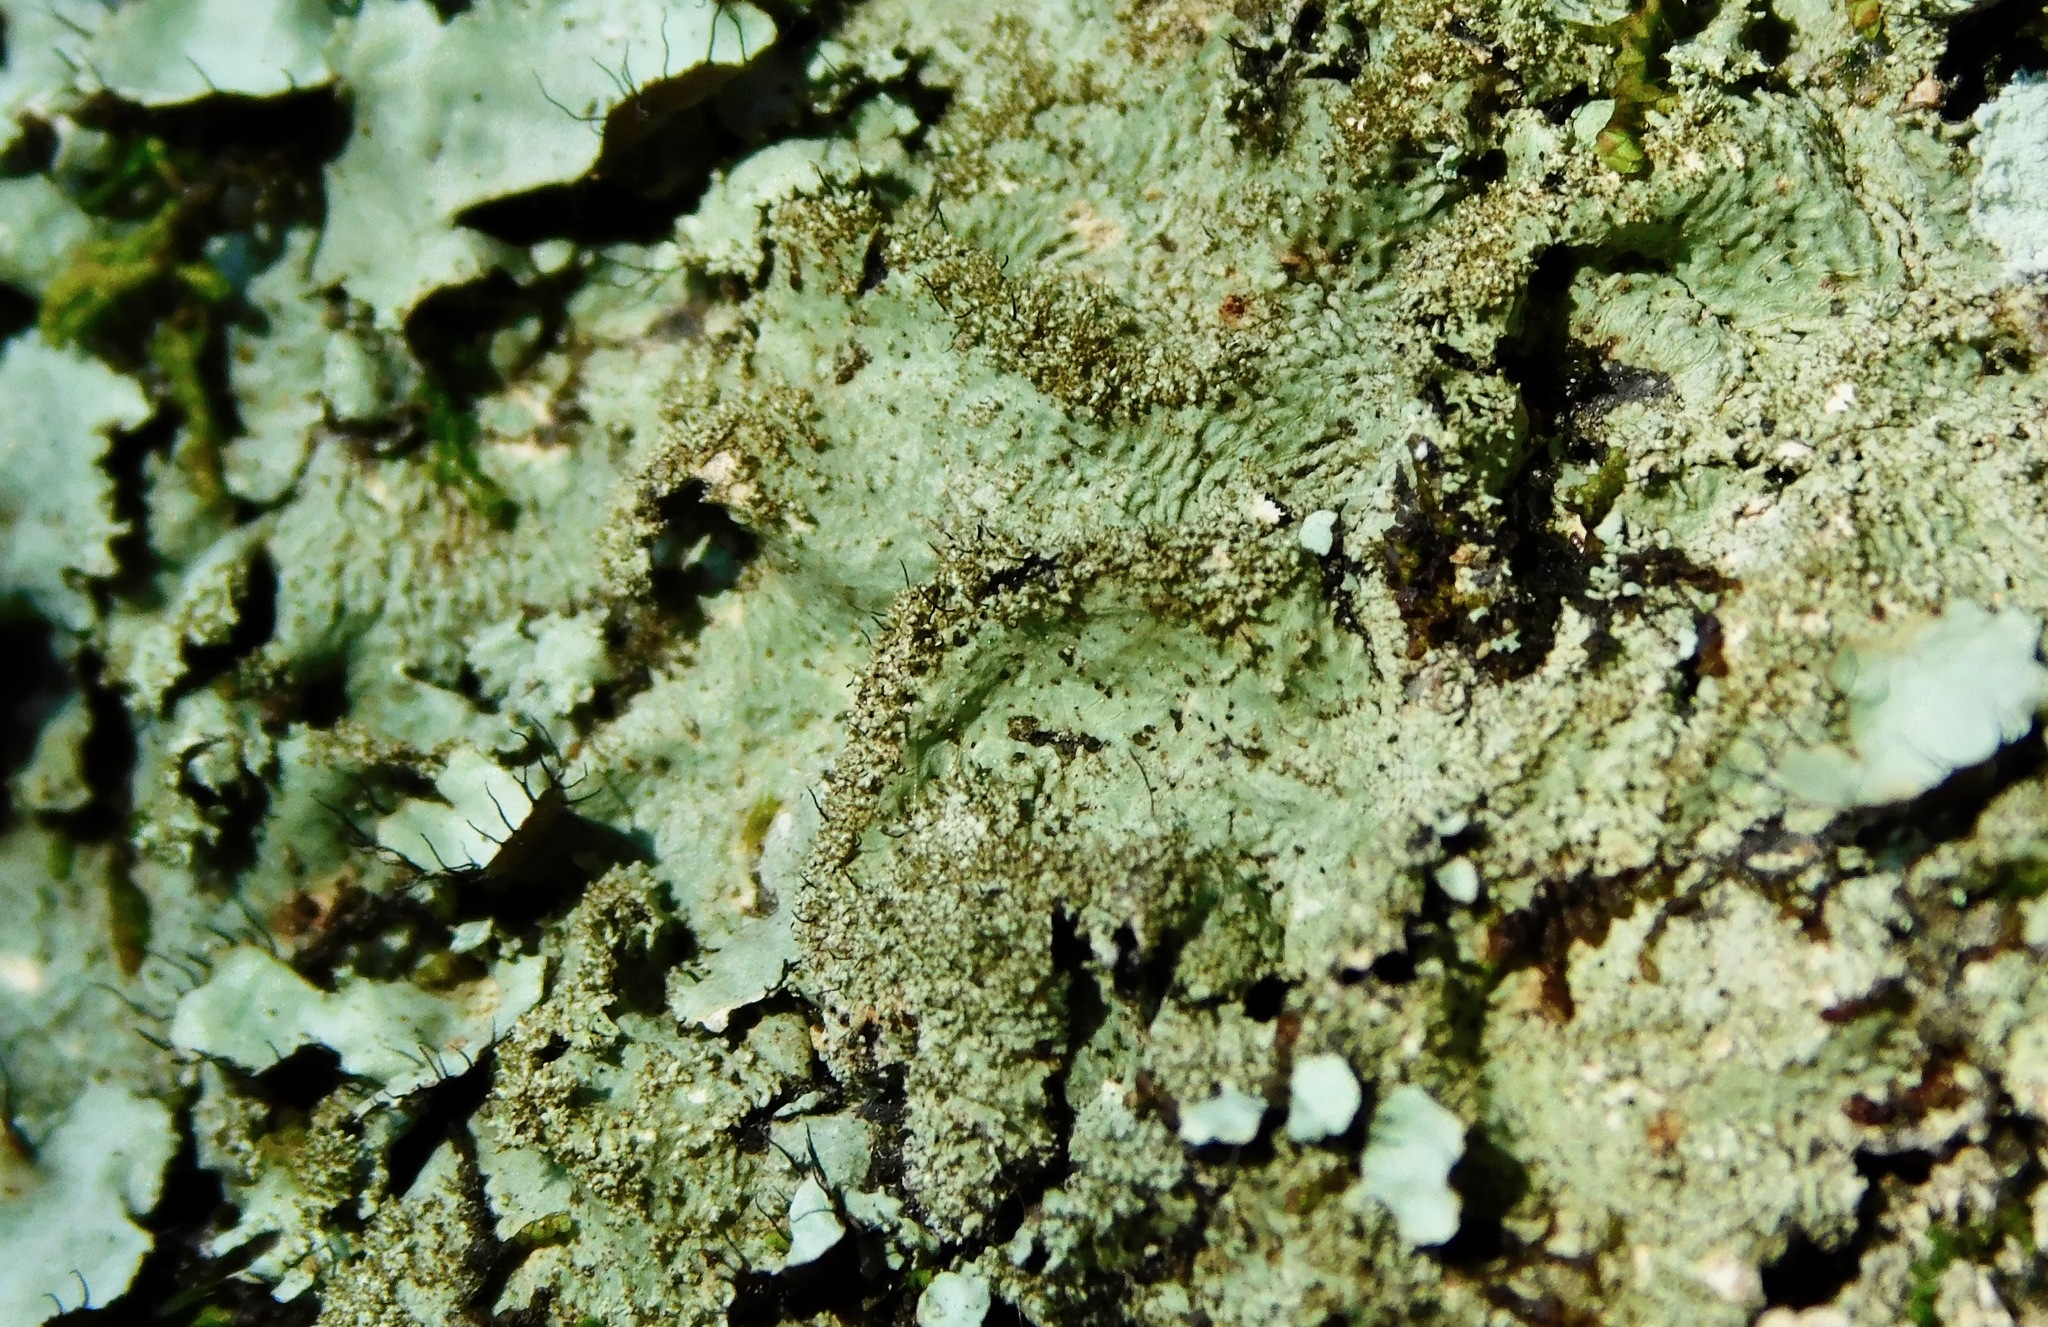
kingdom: Fungi
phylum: Ascomycota
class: Lecanoromycetes
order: Lecanorales
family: Parmeliaceae
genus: Hypotrachyna
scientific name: Hypotrachyna horrescens
